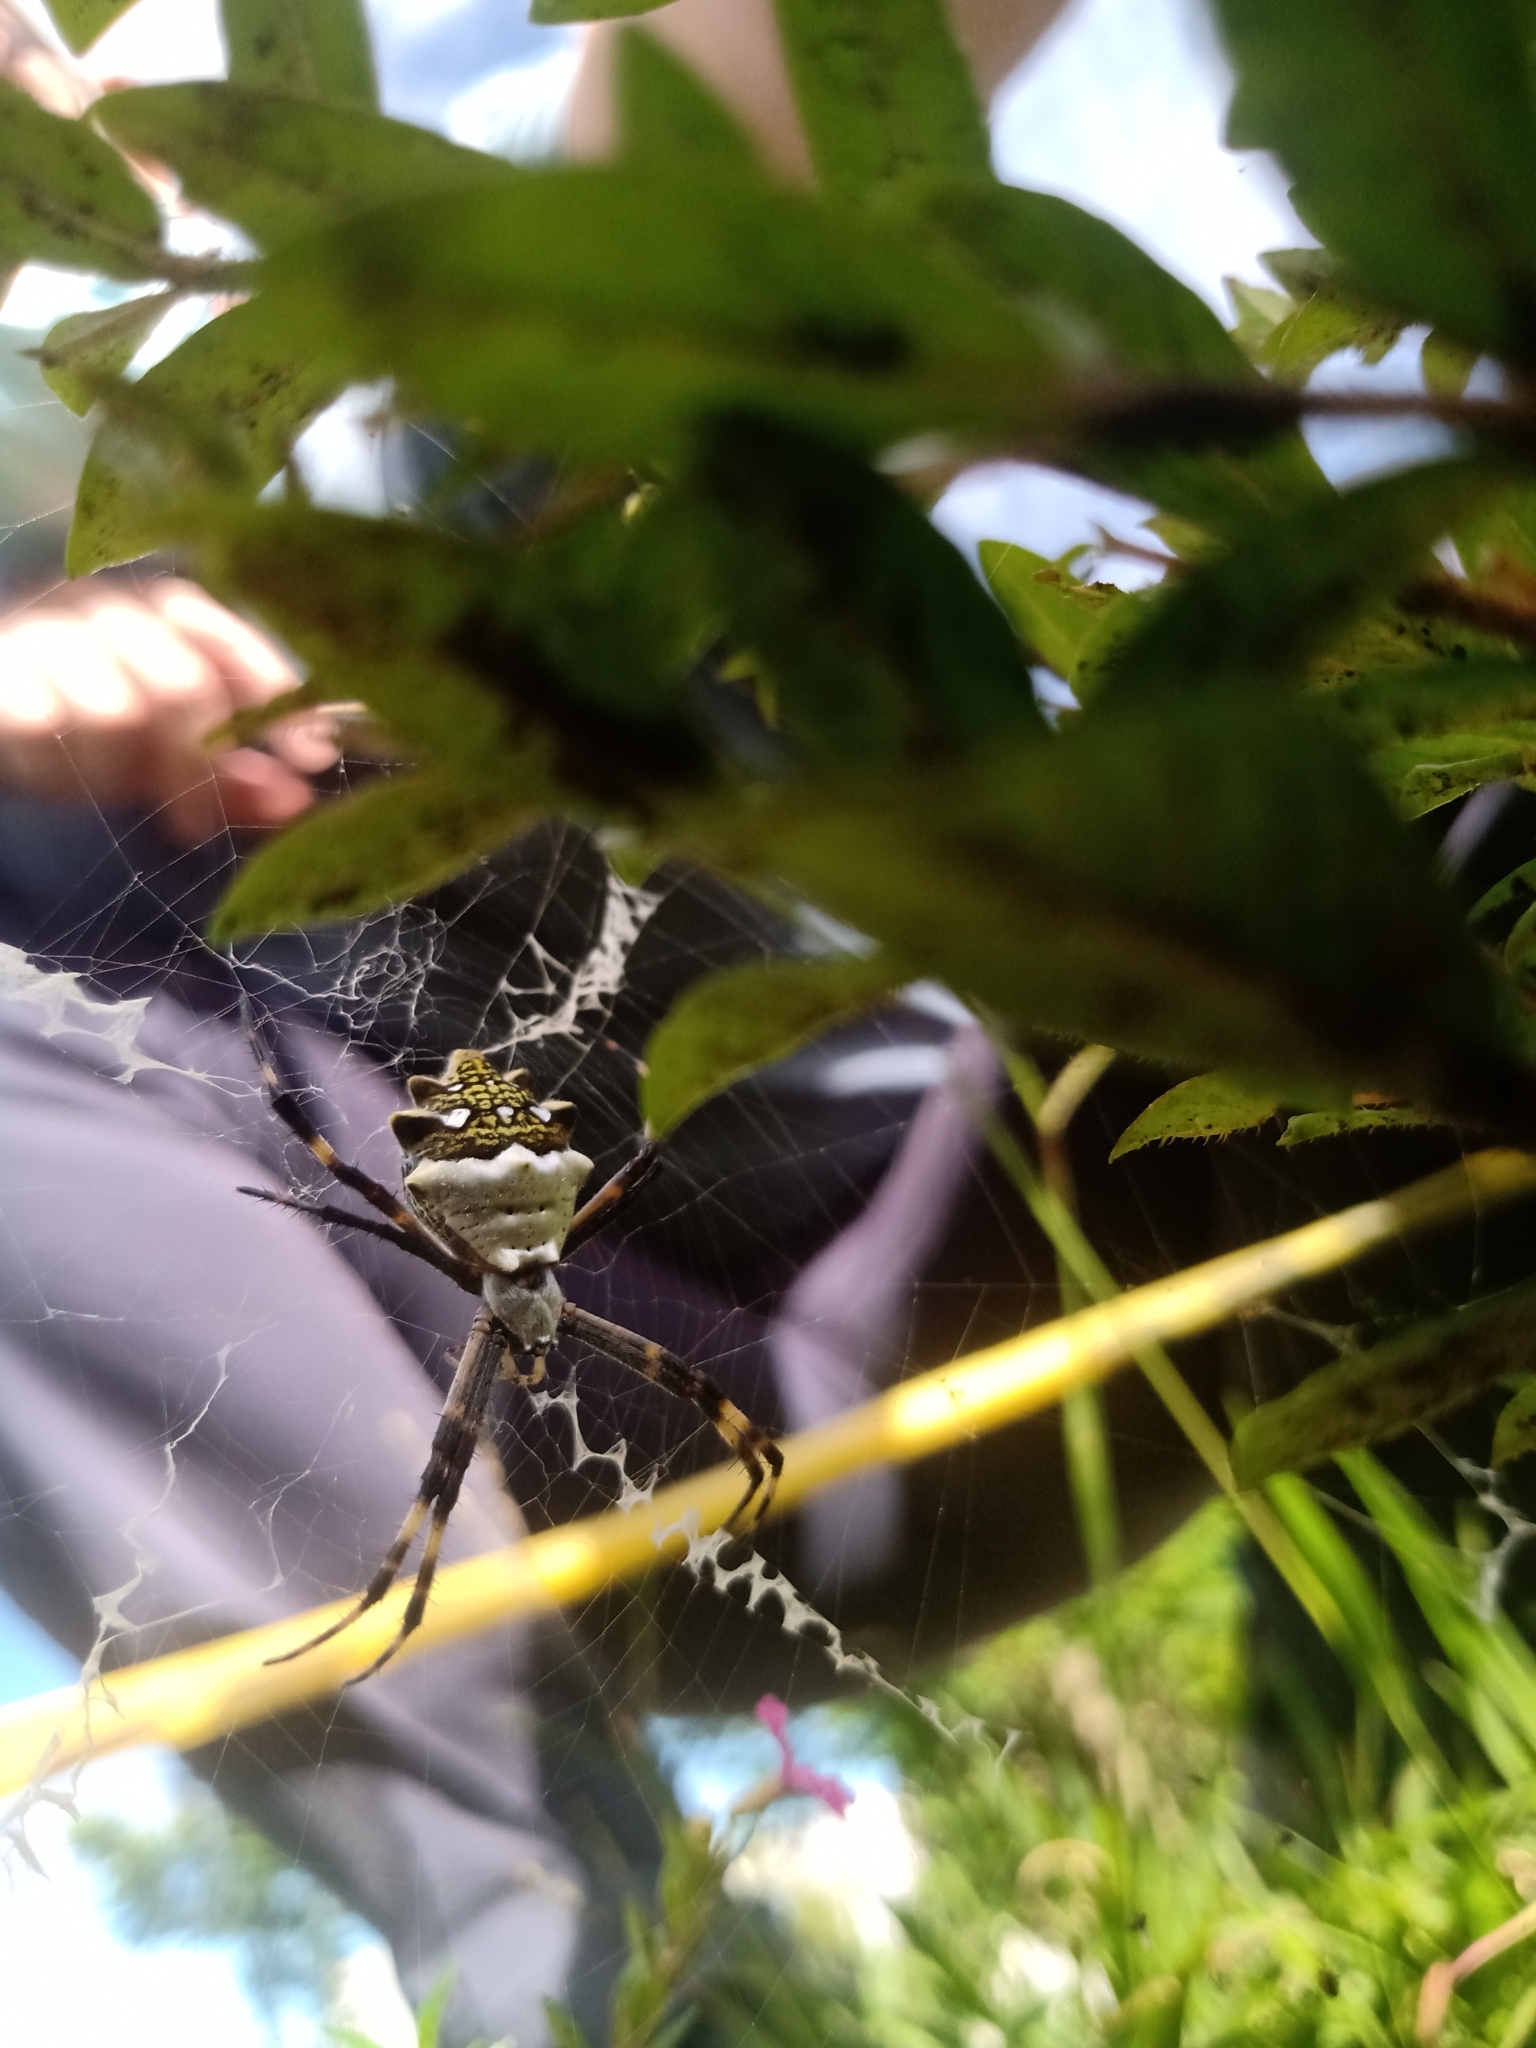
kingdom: Animalia
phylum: Arthropoda
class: Arachnida
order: Araneae
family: Araneidae
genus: Argiope
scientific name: Argiope argentata
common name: Orb weavers
